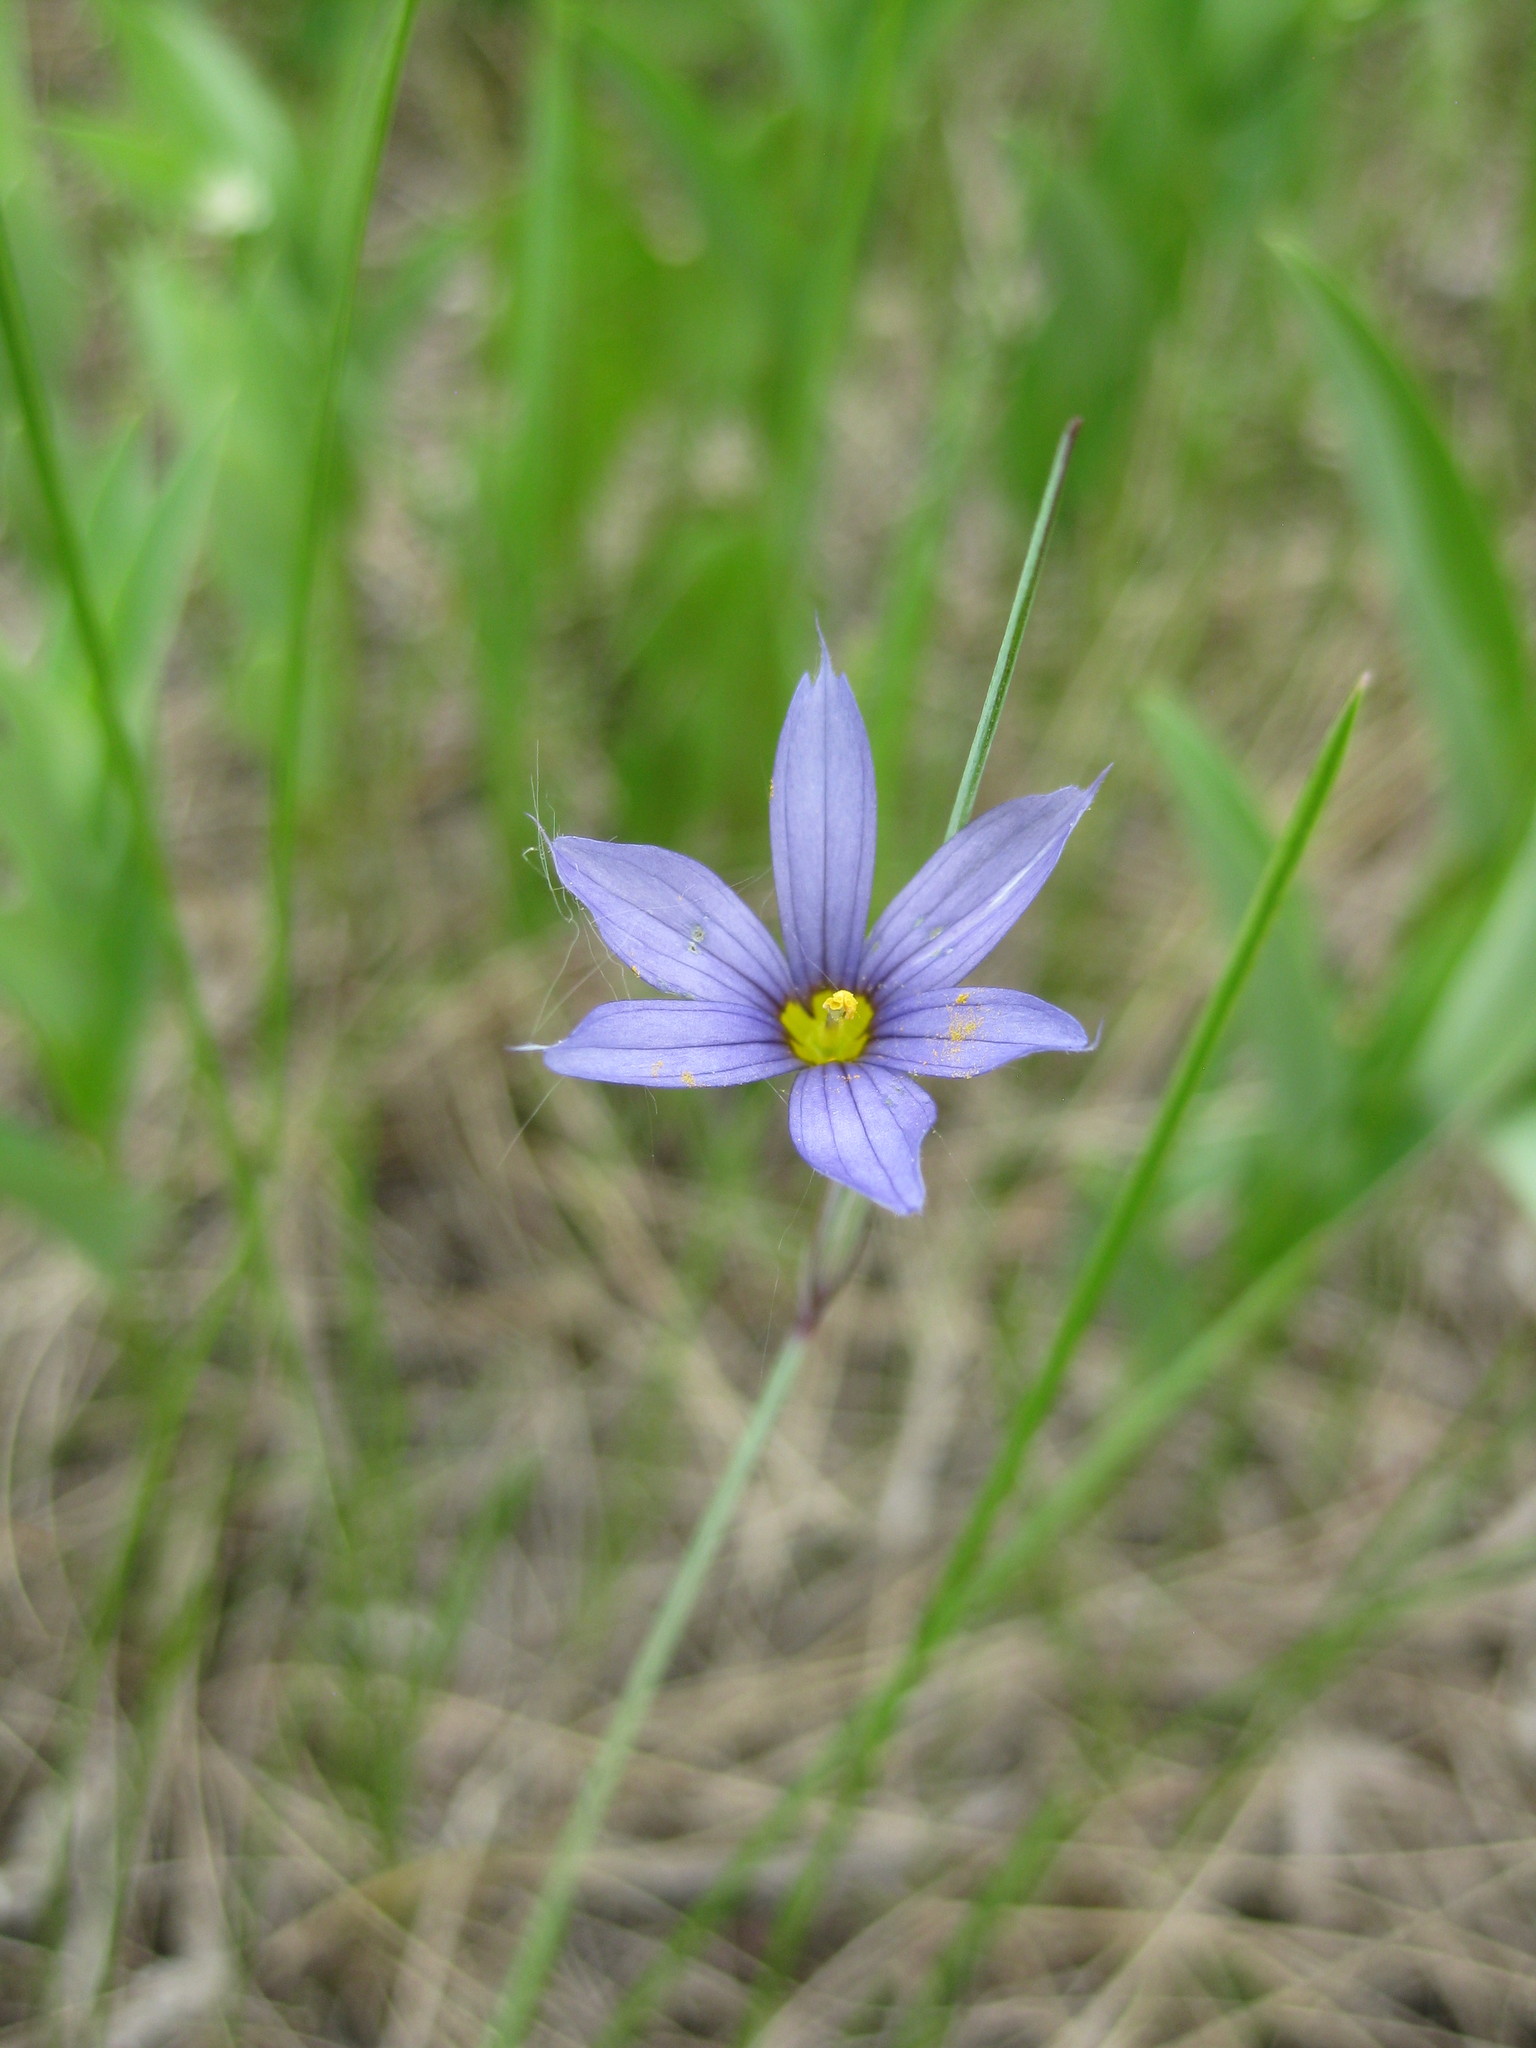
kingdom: Plantae
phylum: Tracheophyta
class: Liliopsida
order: Asparagales
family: Iridaceae
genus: Sisyrinchium
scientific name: Sisyrinchium montanum
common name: American blue-eyed-grass
